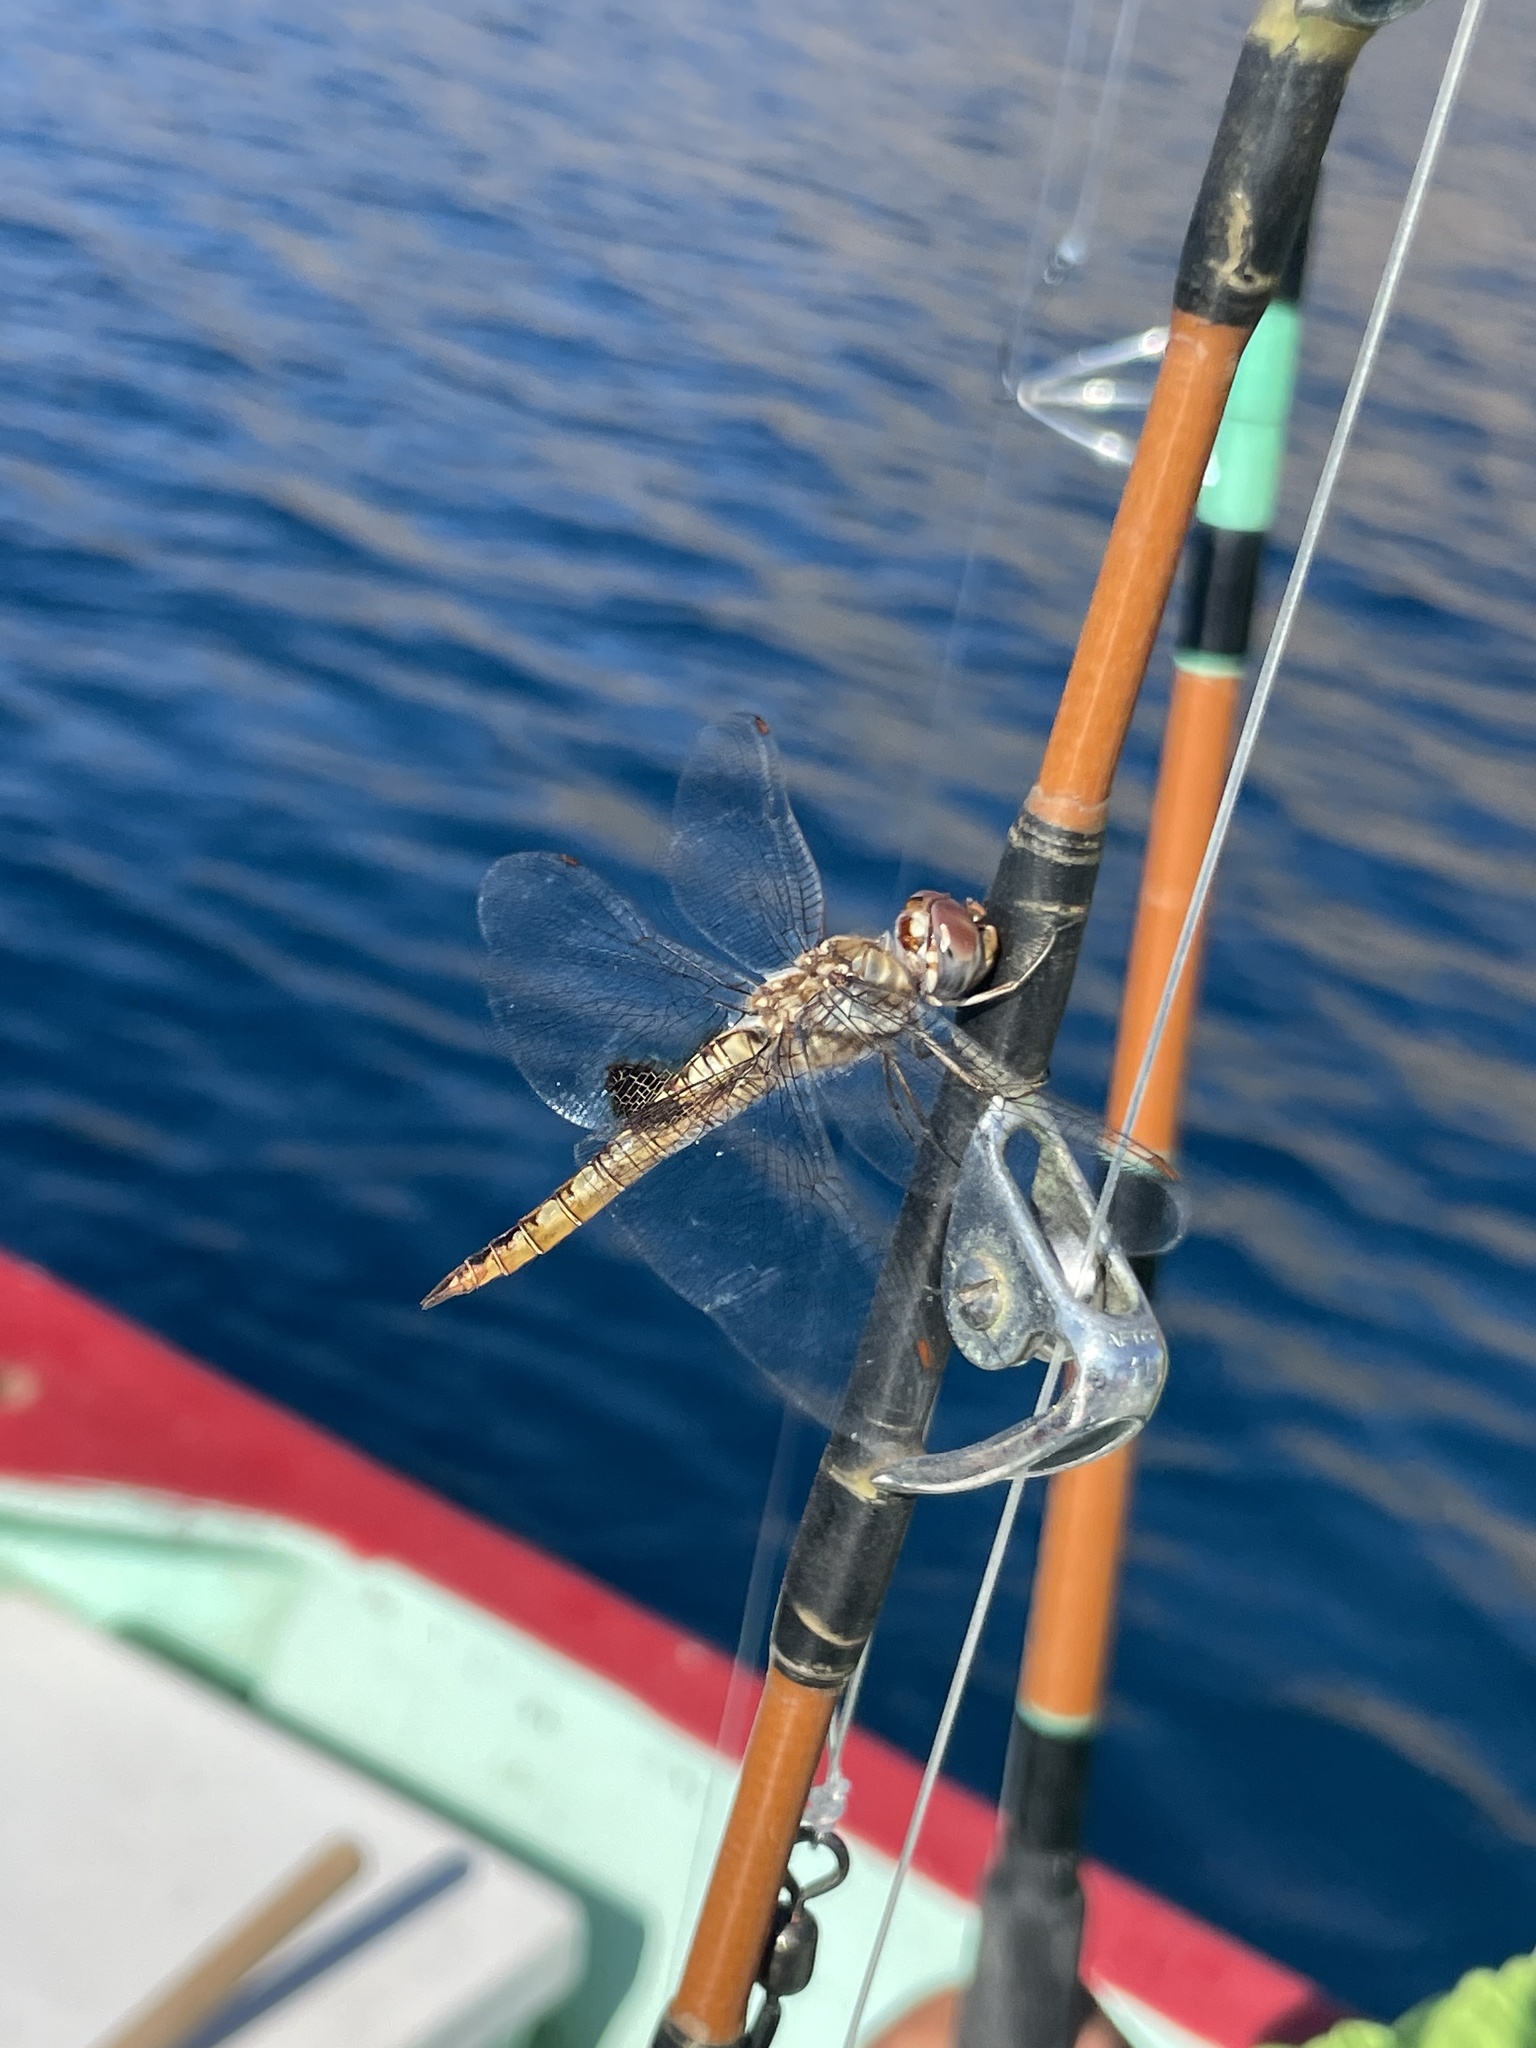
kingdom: Animalia
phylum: Arthropoda
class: Insecta
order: Odonata
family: Libellulidae
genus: Pantala
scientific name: Pantala hymenaea
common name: Spot-winged glider
